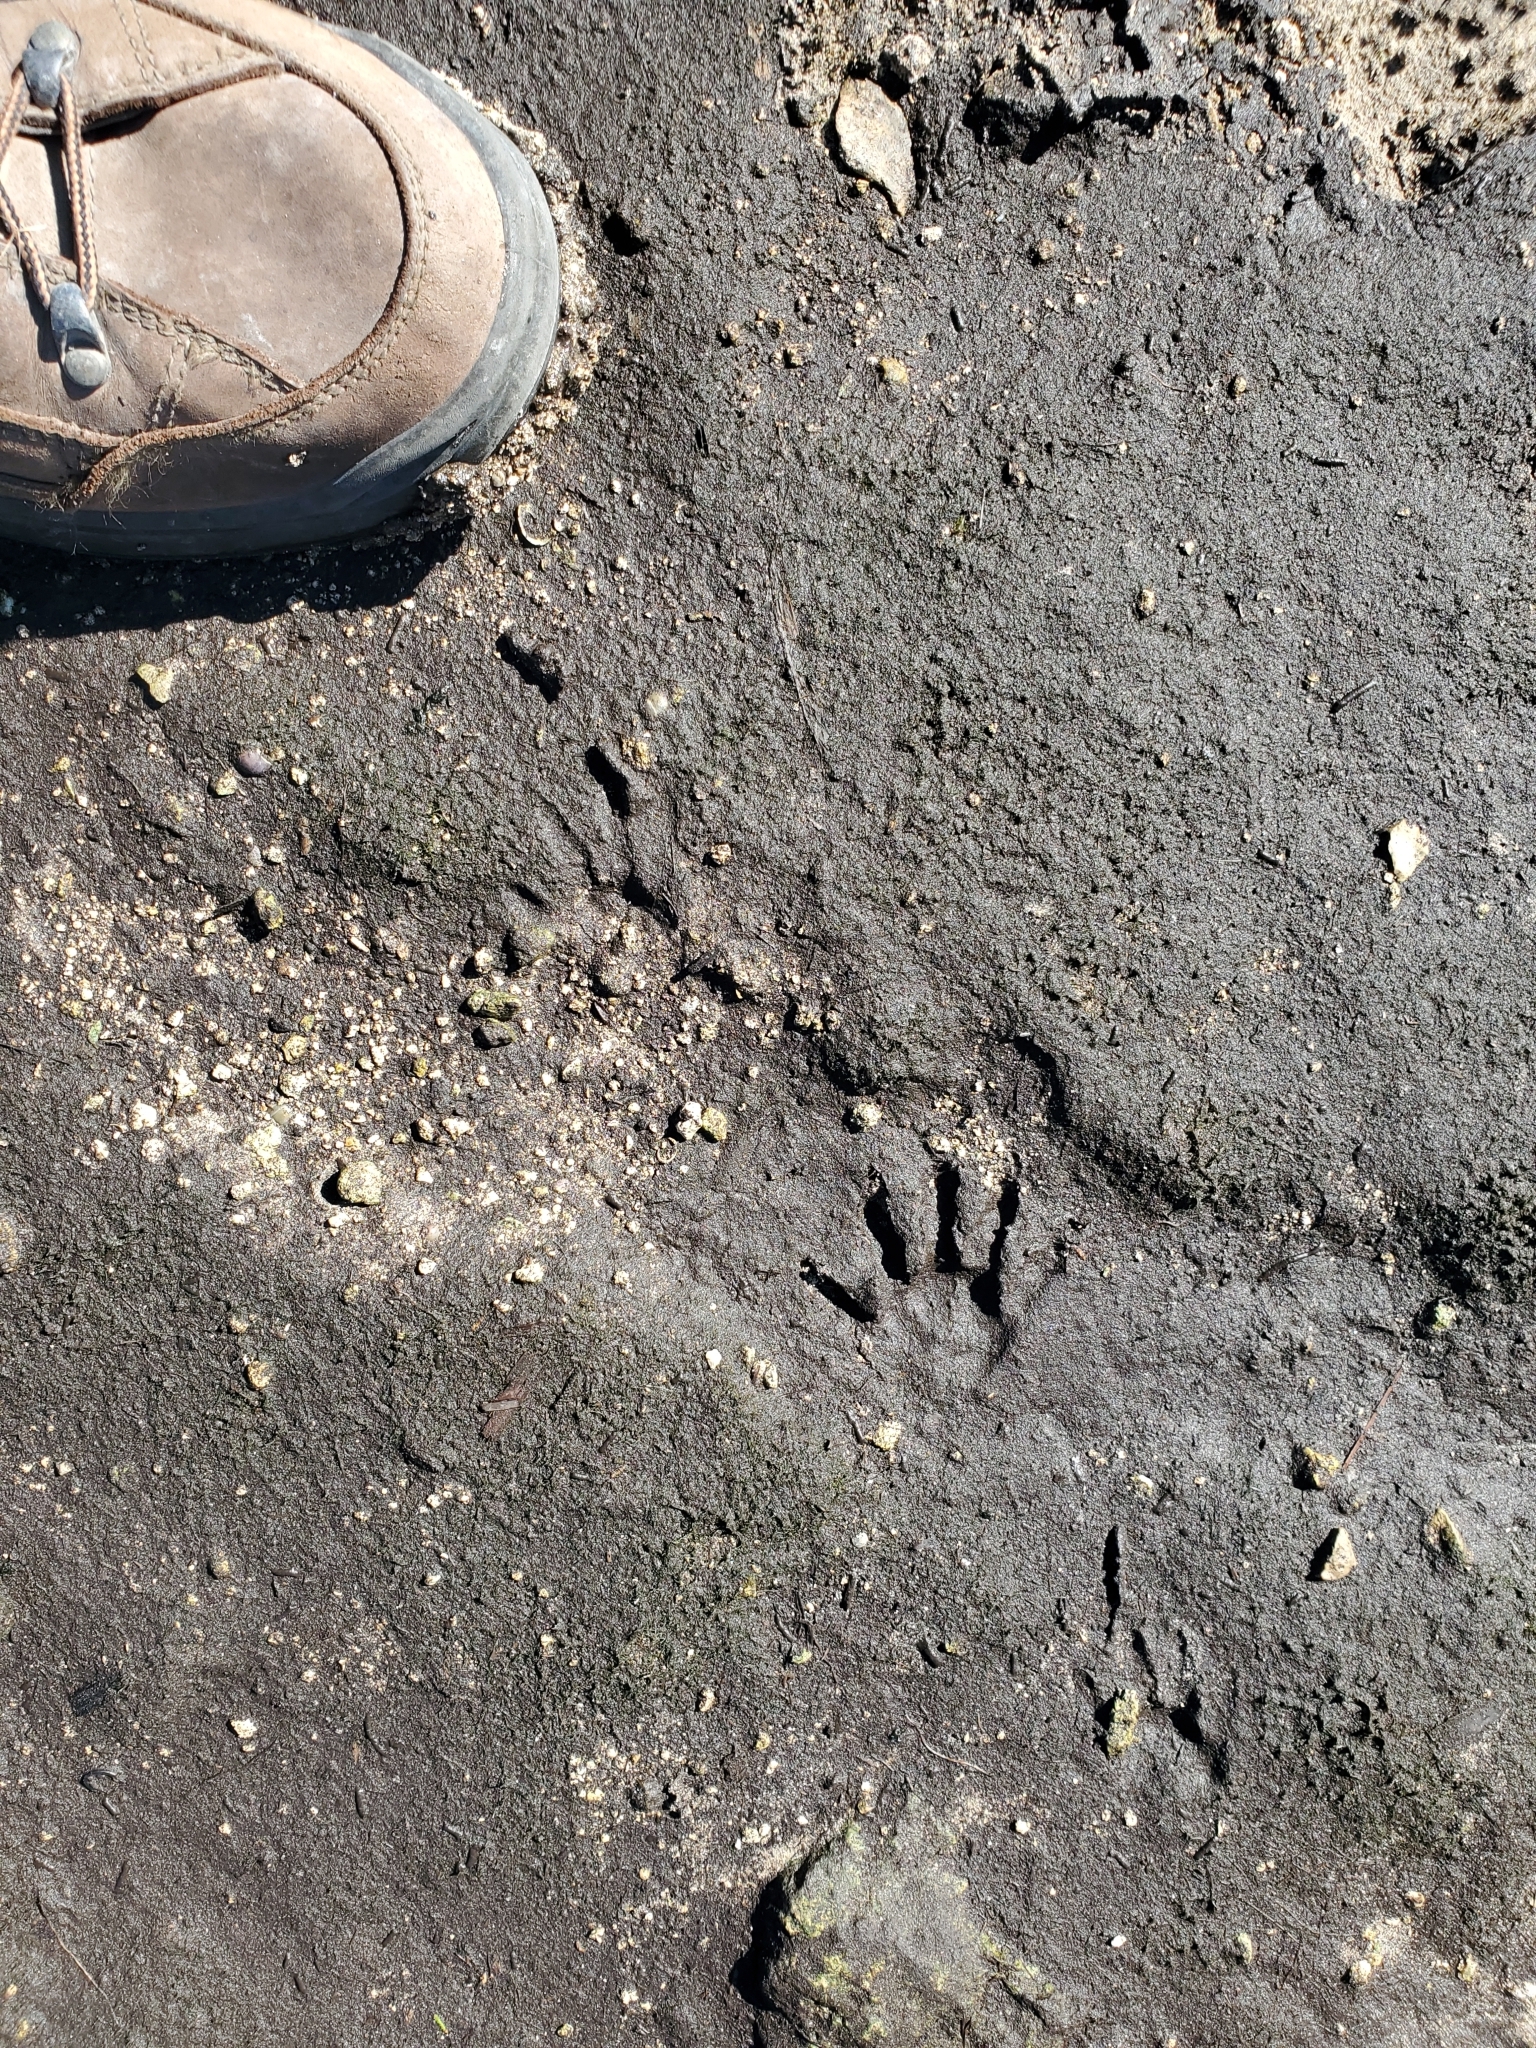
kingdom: Animalia
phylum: Chordata
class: Mammalia
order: Carnivora
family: Procyonidae
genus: Procyon
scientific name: Procyon lotor
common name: Raccoon
